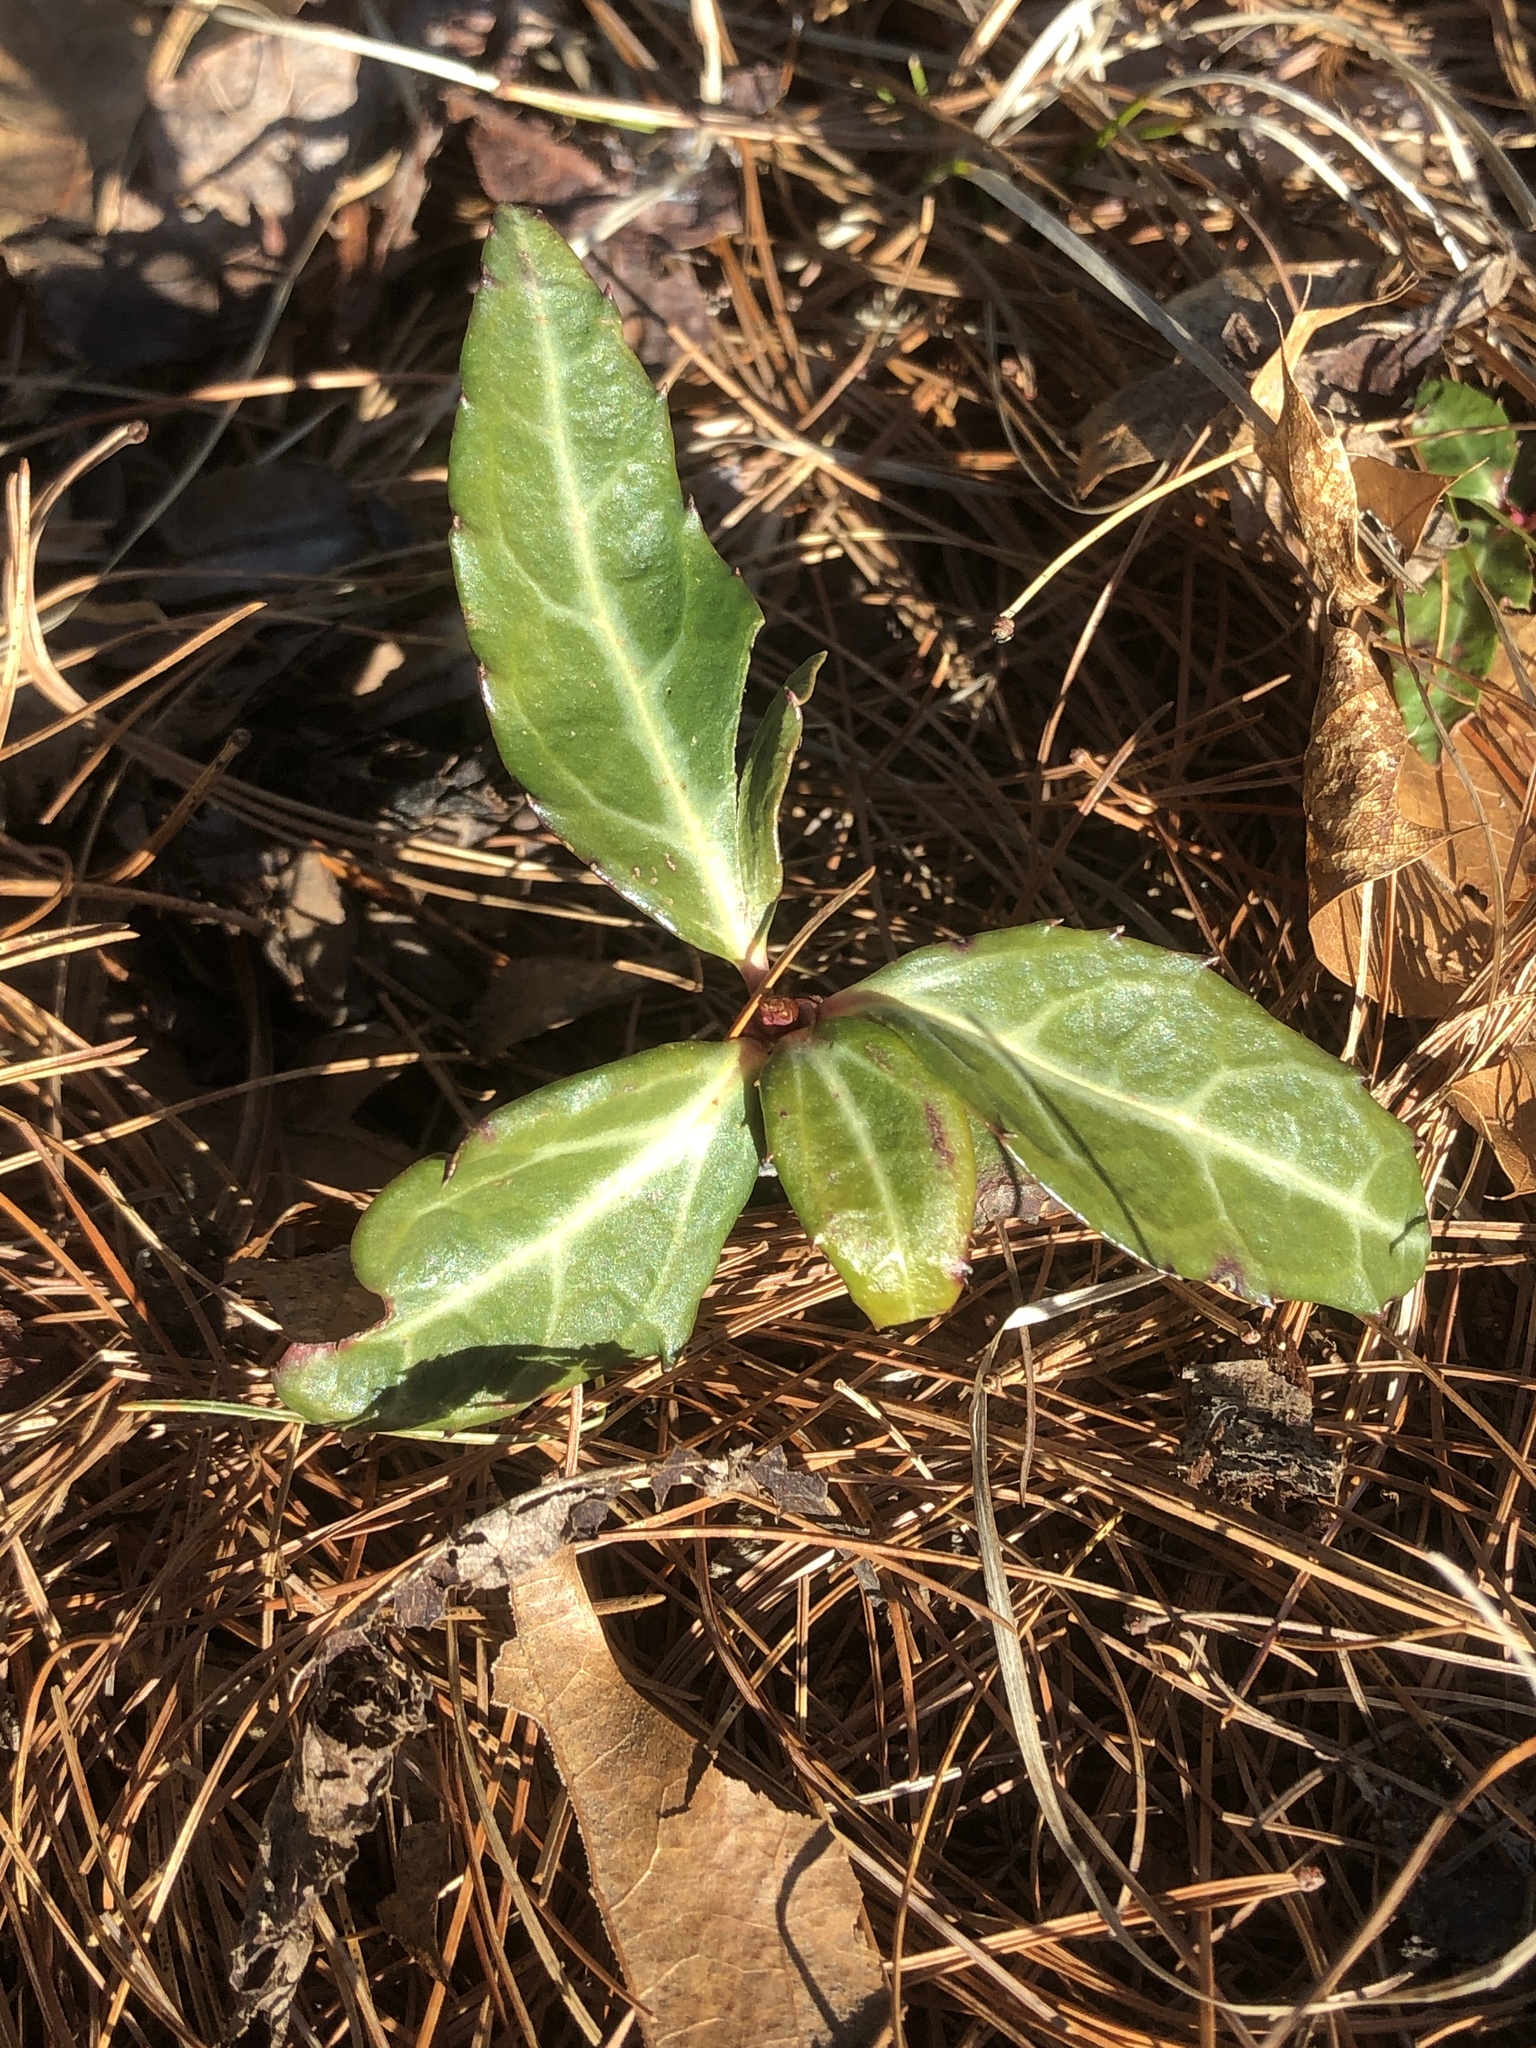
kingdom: Plantae
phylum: Tracheophyta
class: Magnoliopsida
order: Ericales
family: Ericaceae
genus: Chimaphila
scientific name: Chimaphila maculata
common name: Spotted pipsissewa
